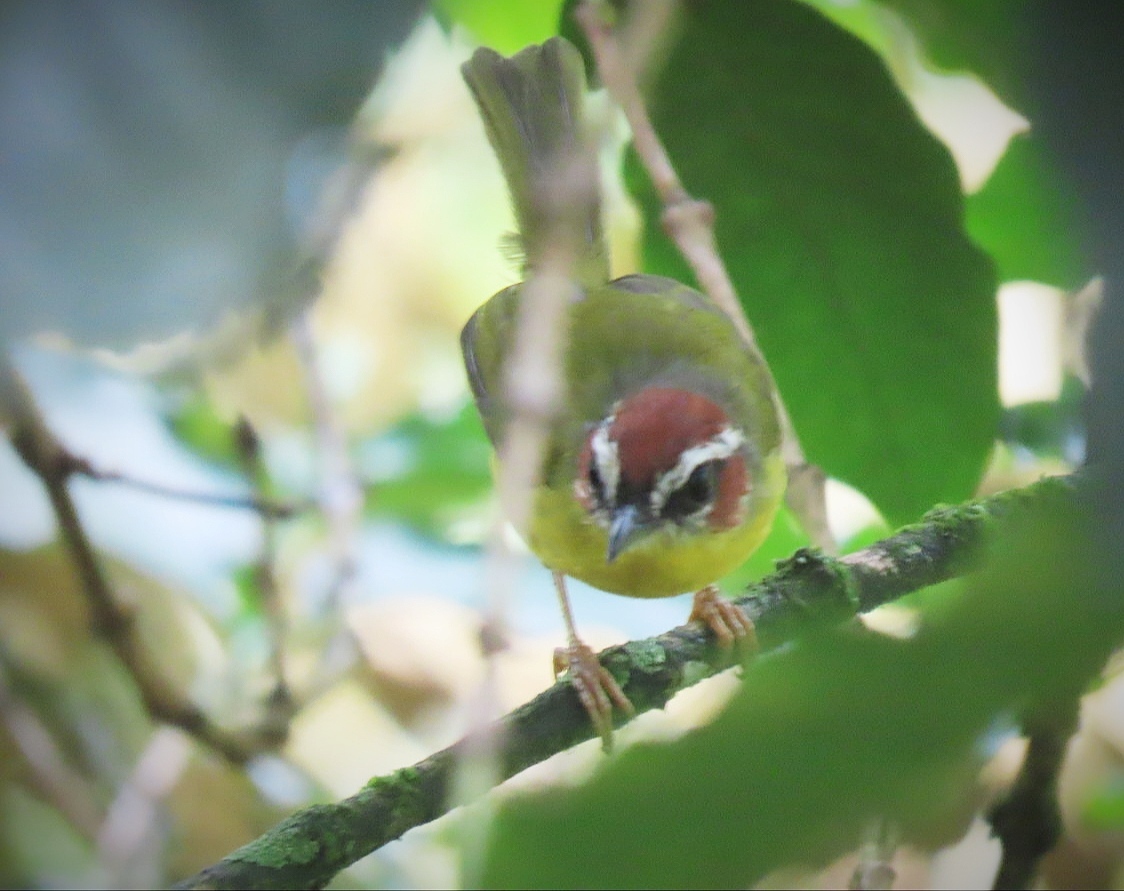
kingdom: Animalia
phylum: Chordata
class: Aves
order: Passeriformes
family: Parulidae
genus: Basileuterus
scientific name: Basileuterus rufifrons
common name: Rufous-capped warbler
